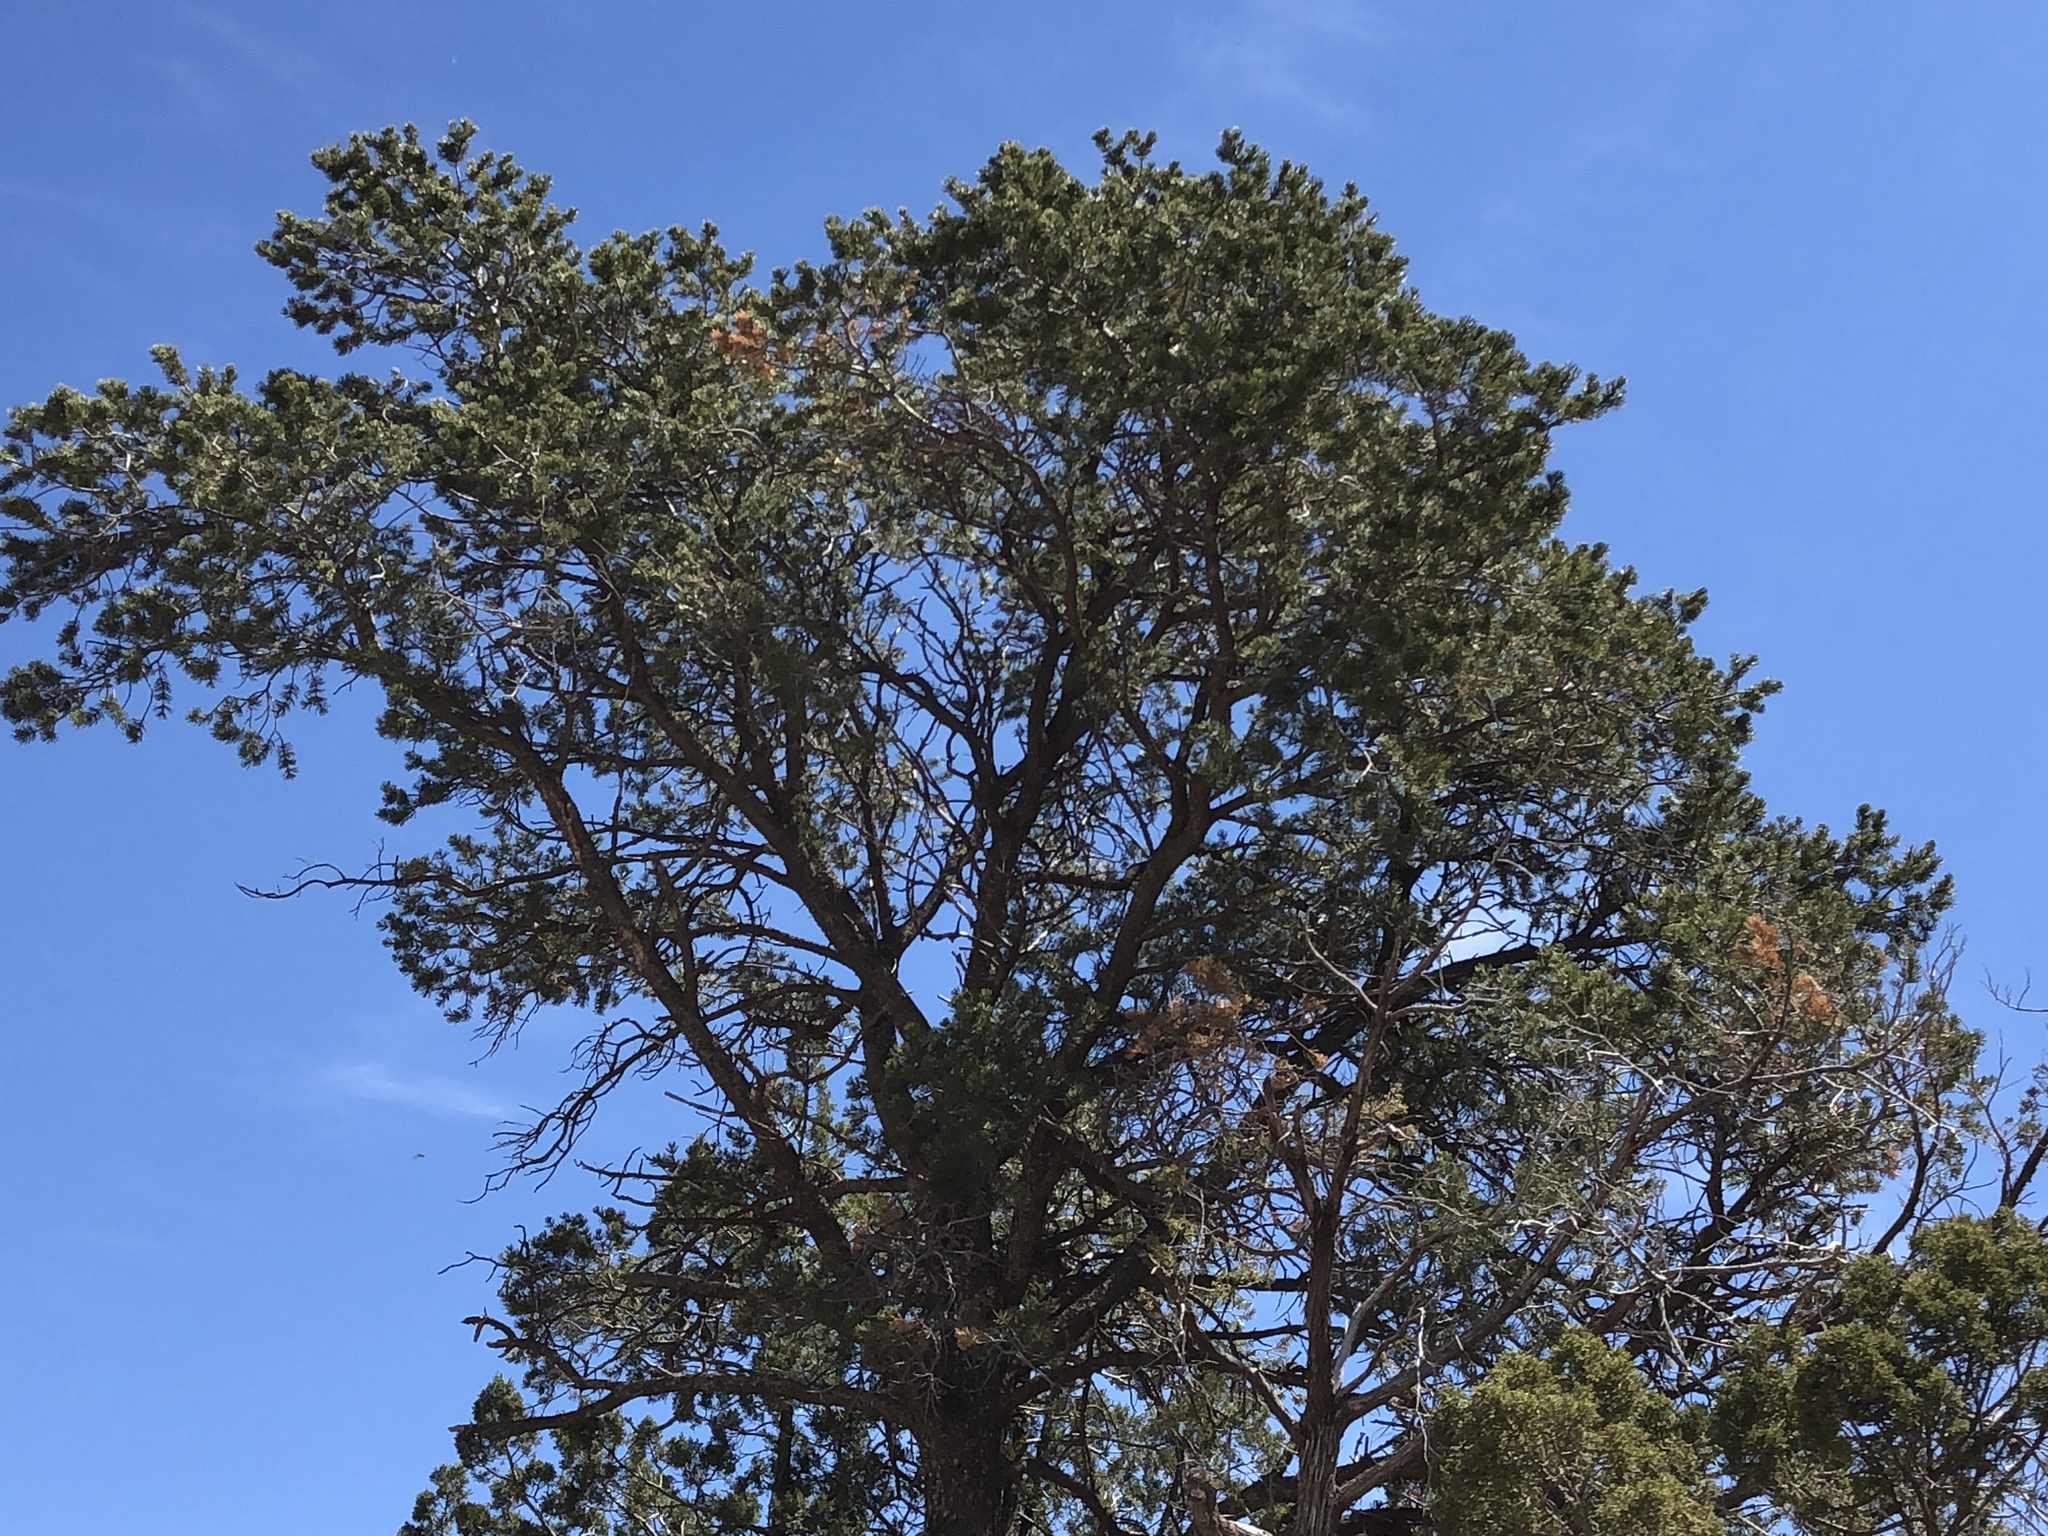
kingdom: Plantae
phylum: Tracheophyta
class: Pinopsida
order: Pinales
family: Pinaceae
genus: Pinus
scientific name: Pinus edulis
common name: Colorado pinyon
